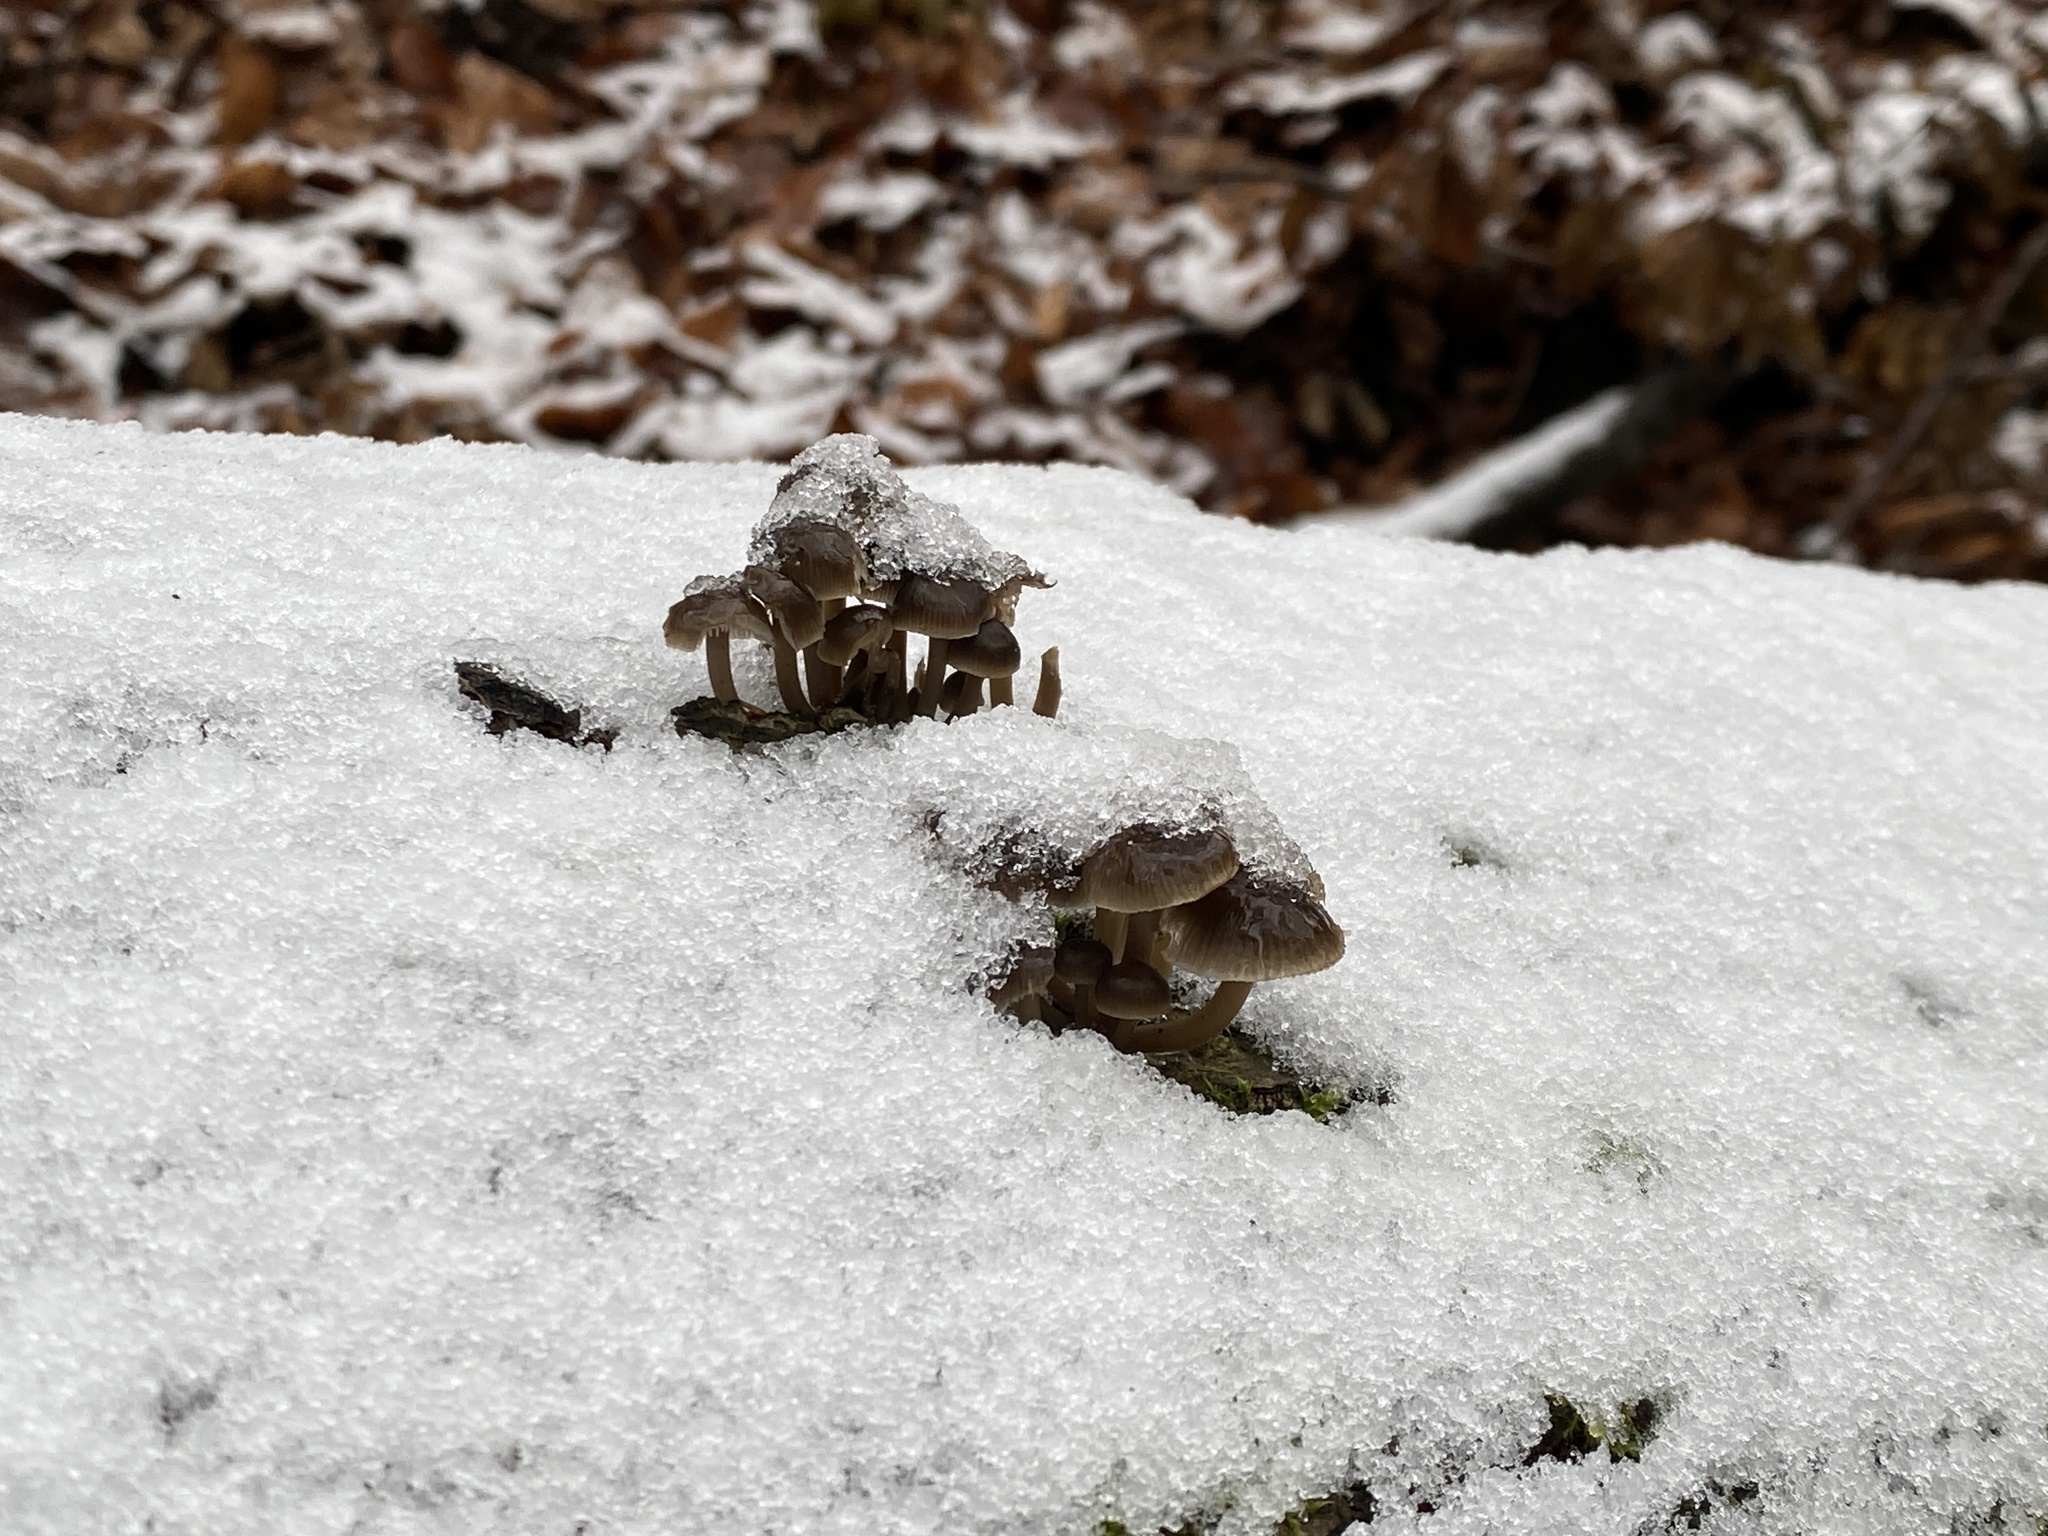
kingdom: Fungi
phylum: Basidiomycota
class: Agaricomycetes
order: Agaricales
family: Mycenaceae
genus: Mycena
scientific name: Mycena tintinnabulum
